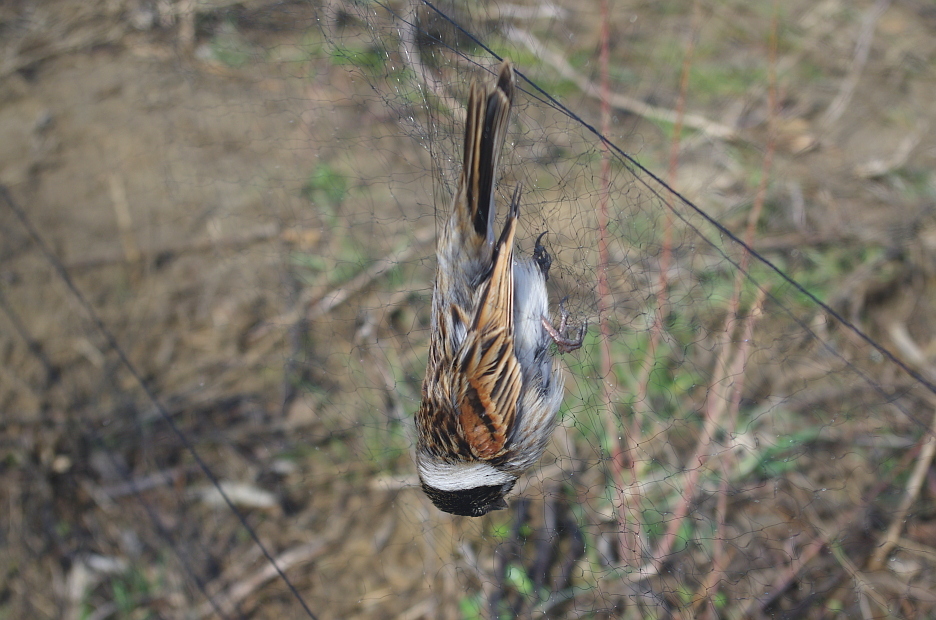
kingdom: Animalia
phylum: Chordata
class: Aves
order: Passeriformes
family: Emberizidae
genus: Emberiza
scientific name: Emberiza schoeniclus
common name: Reed bunting
